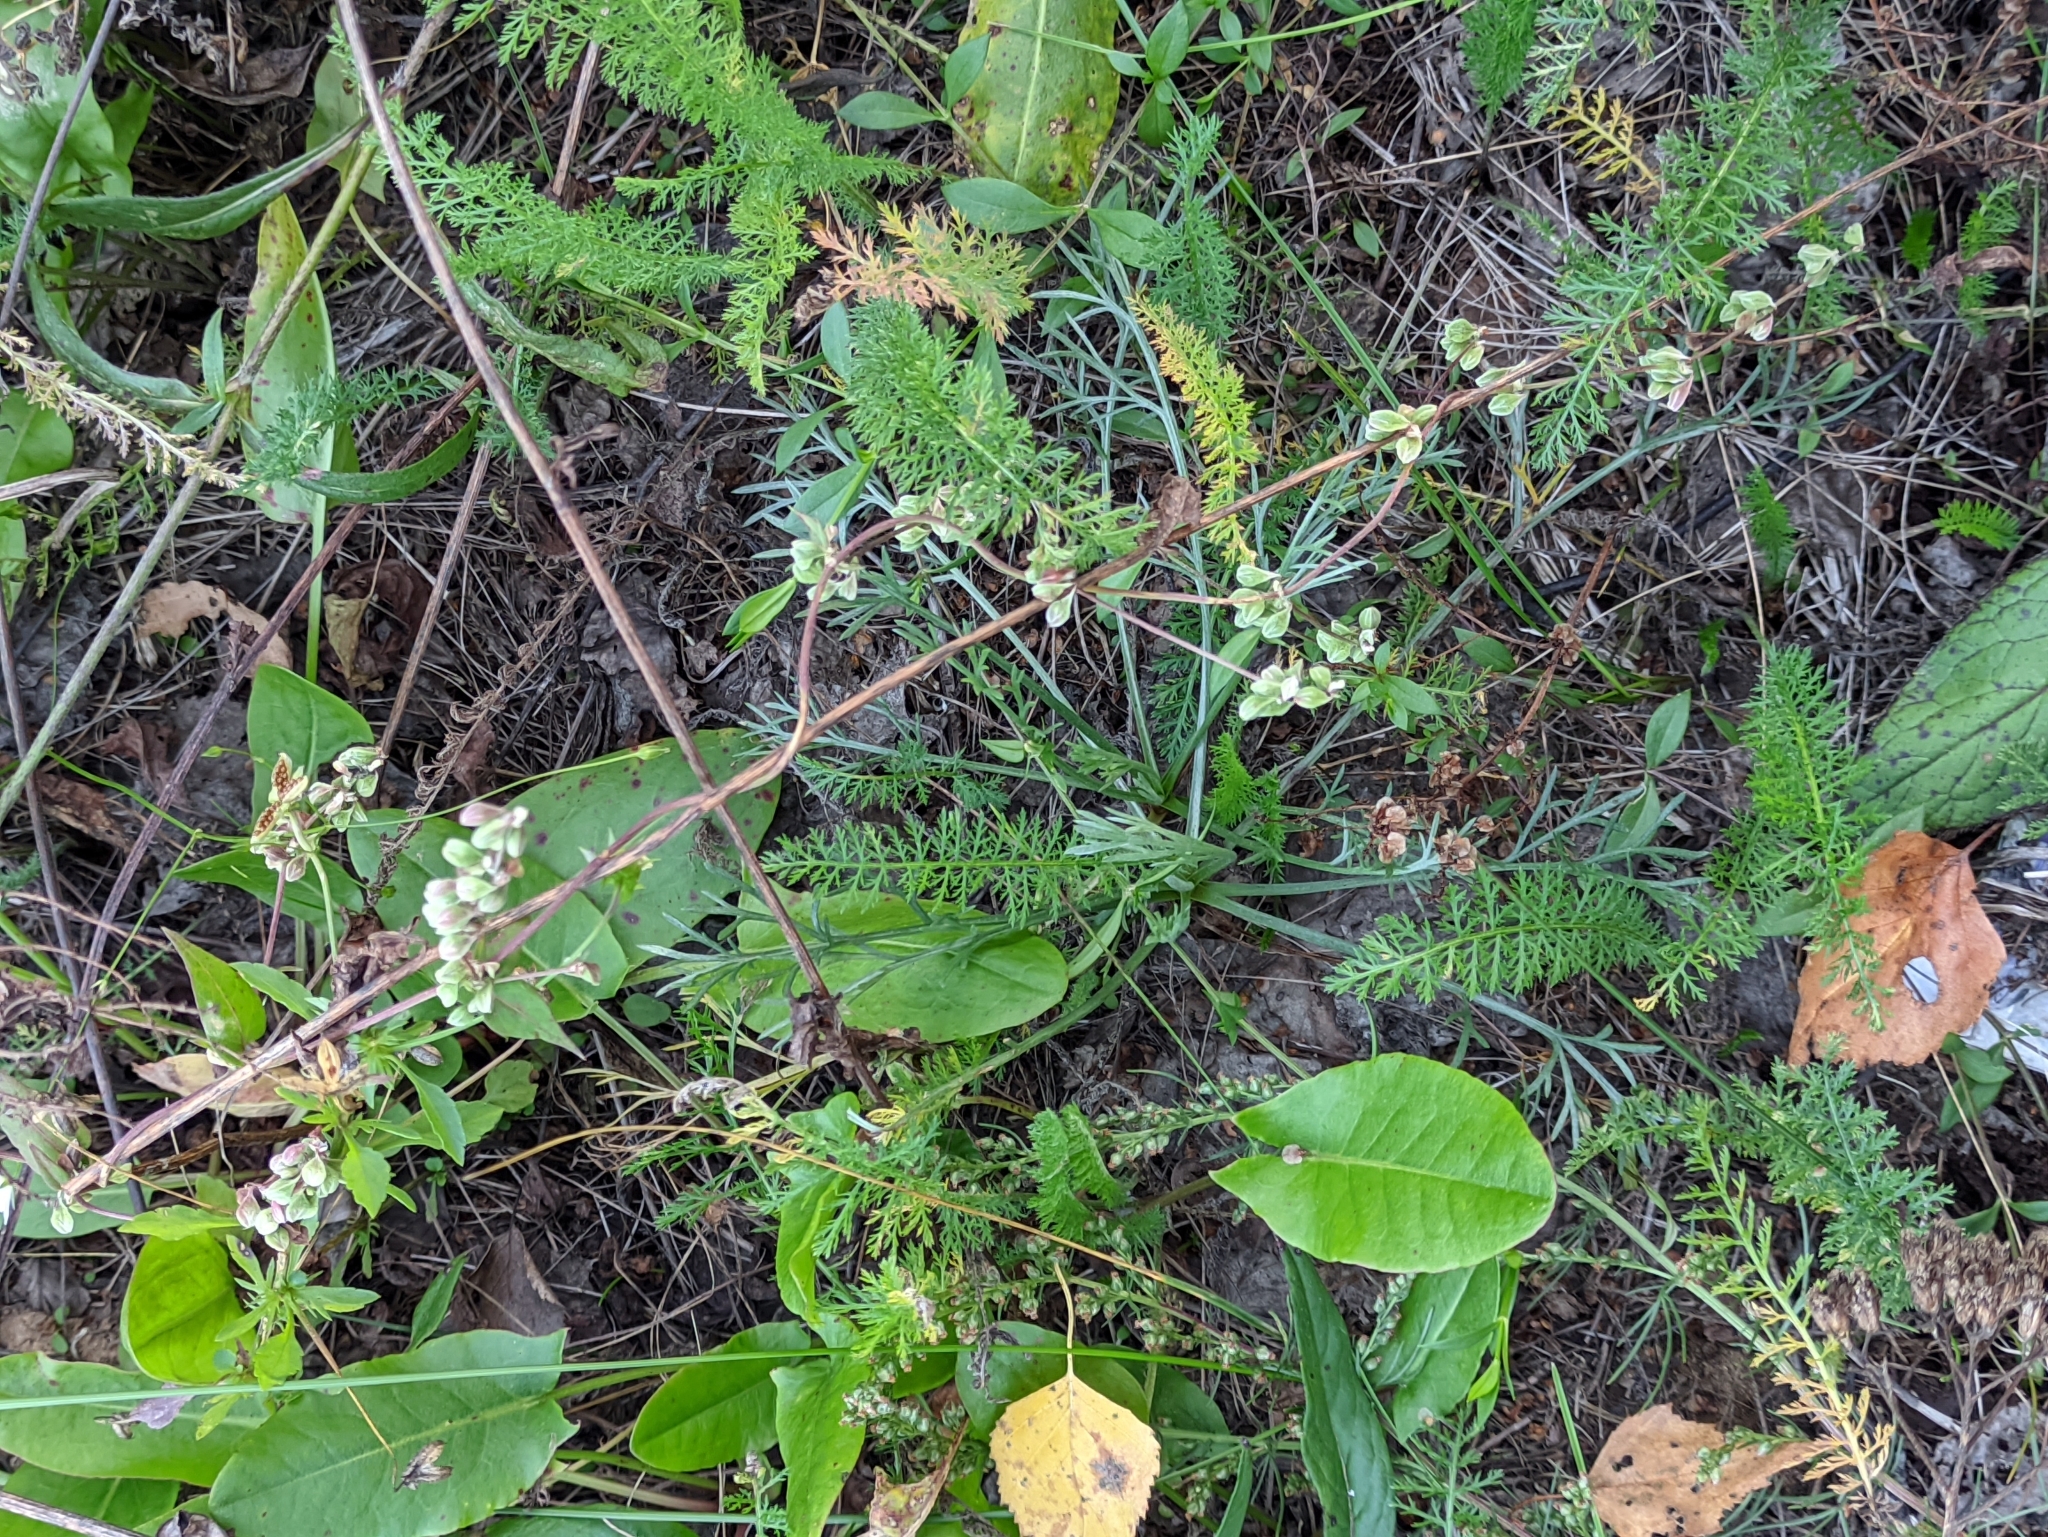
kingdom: Plantae
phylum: Tracheophyta
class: Magnoliopsida
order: Caryophyllales
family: Polygonaceae
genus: Fallopia
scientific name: Fallopia convolvulus
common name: Black bindweed
